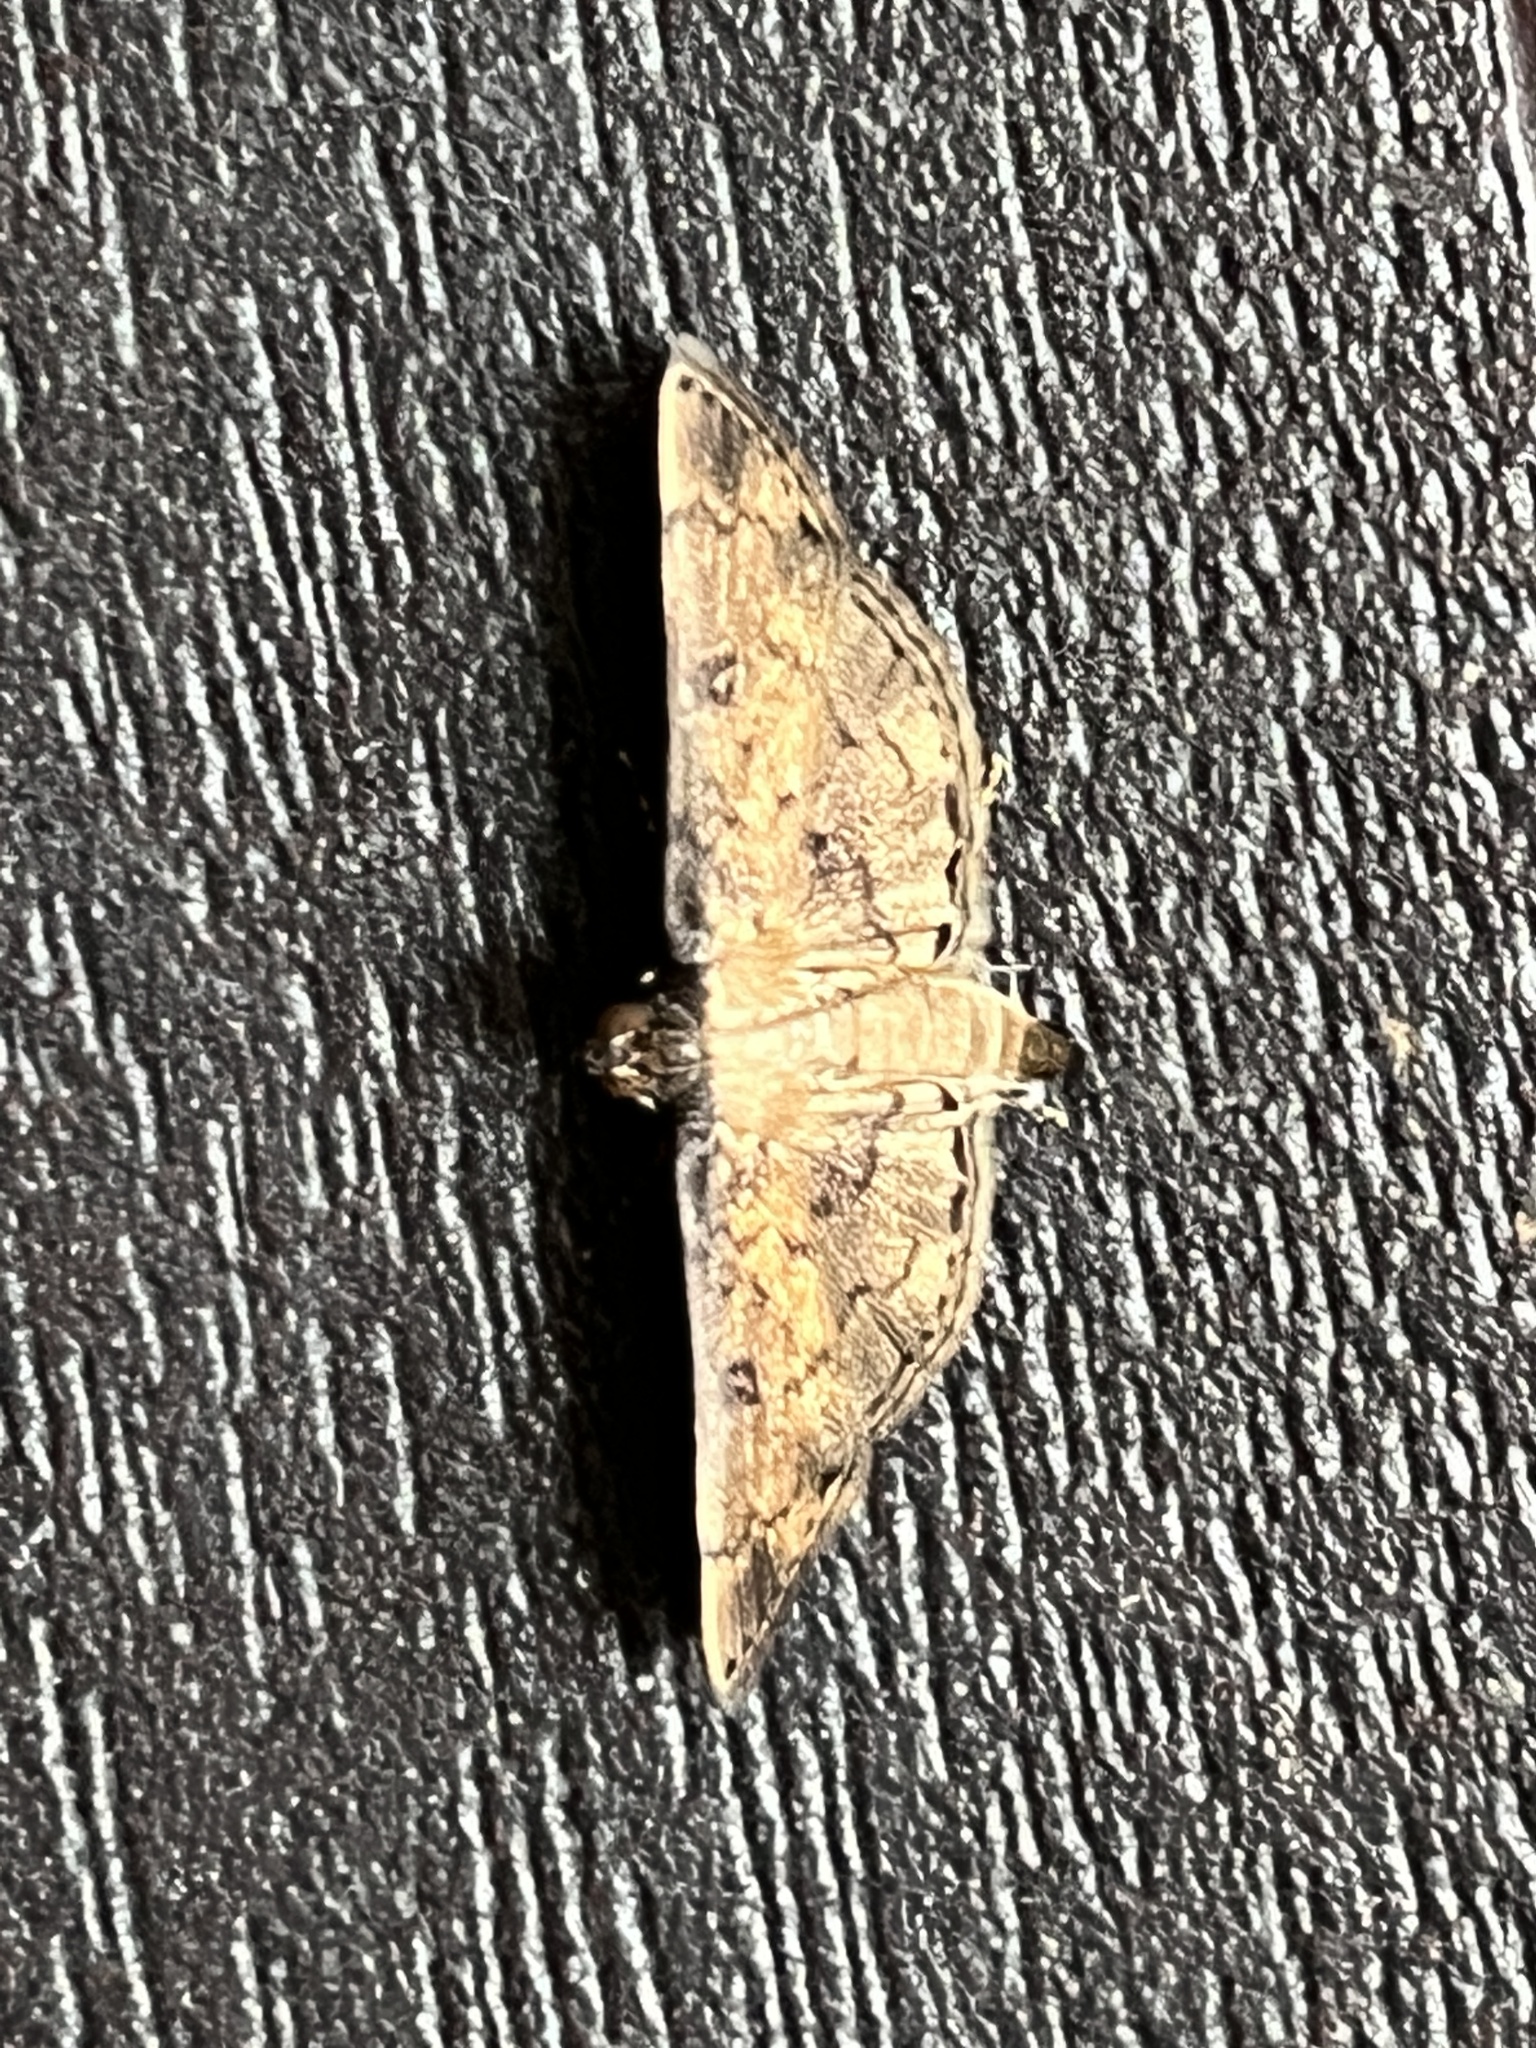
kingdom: Animalia
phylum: Arthropoda
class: Insecta
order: Lepidoptera
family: Crambidae
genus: Nacoleia
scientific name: Nacoleia charesalis
